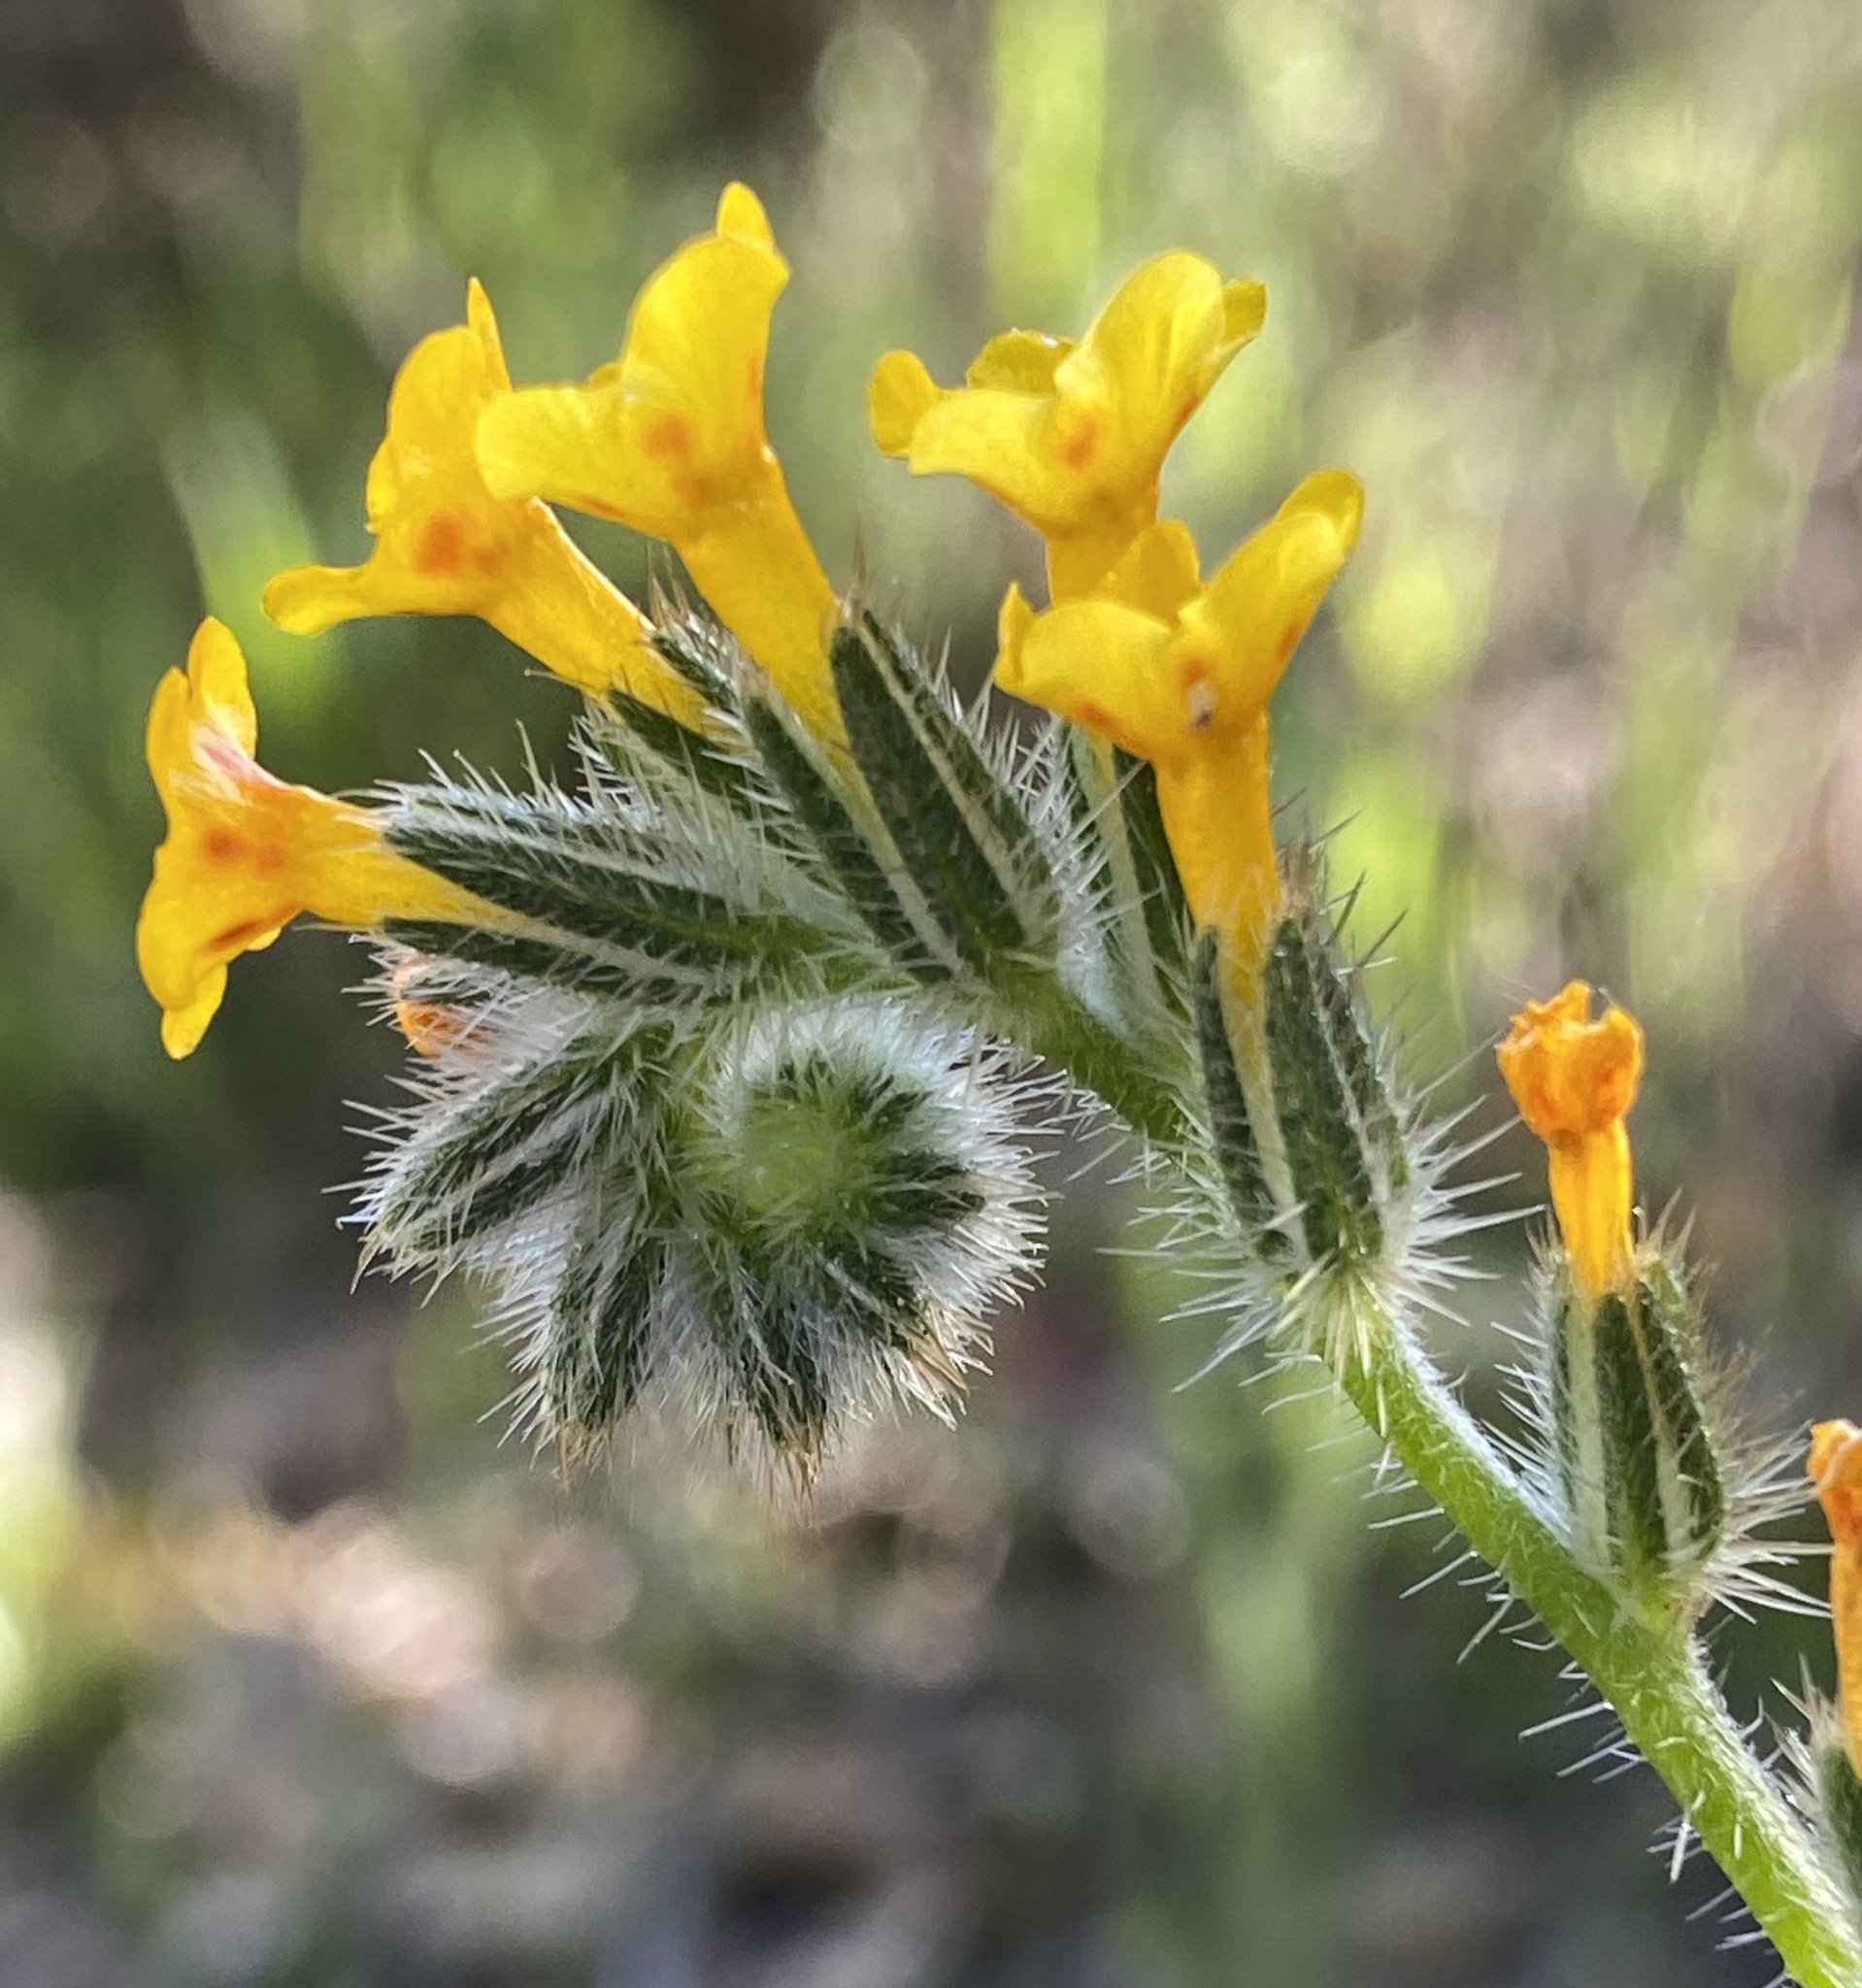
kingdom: Plantae
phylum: Tracheophyta
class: Magnoliopsida
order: Boraginales
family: Boraginaceae
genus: Amsinckia
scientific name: Amsinckia menziesii
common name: Menzies' fiddleneck
